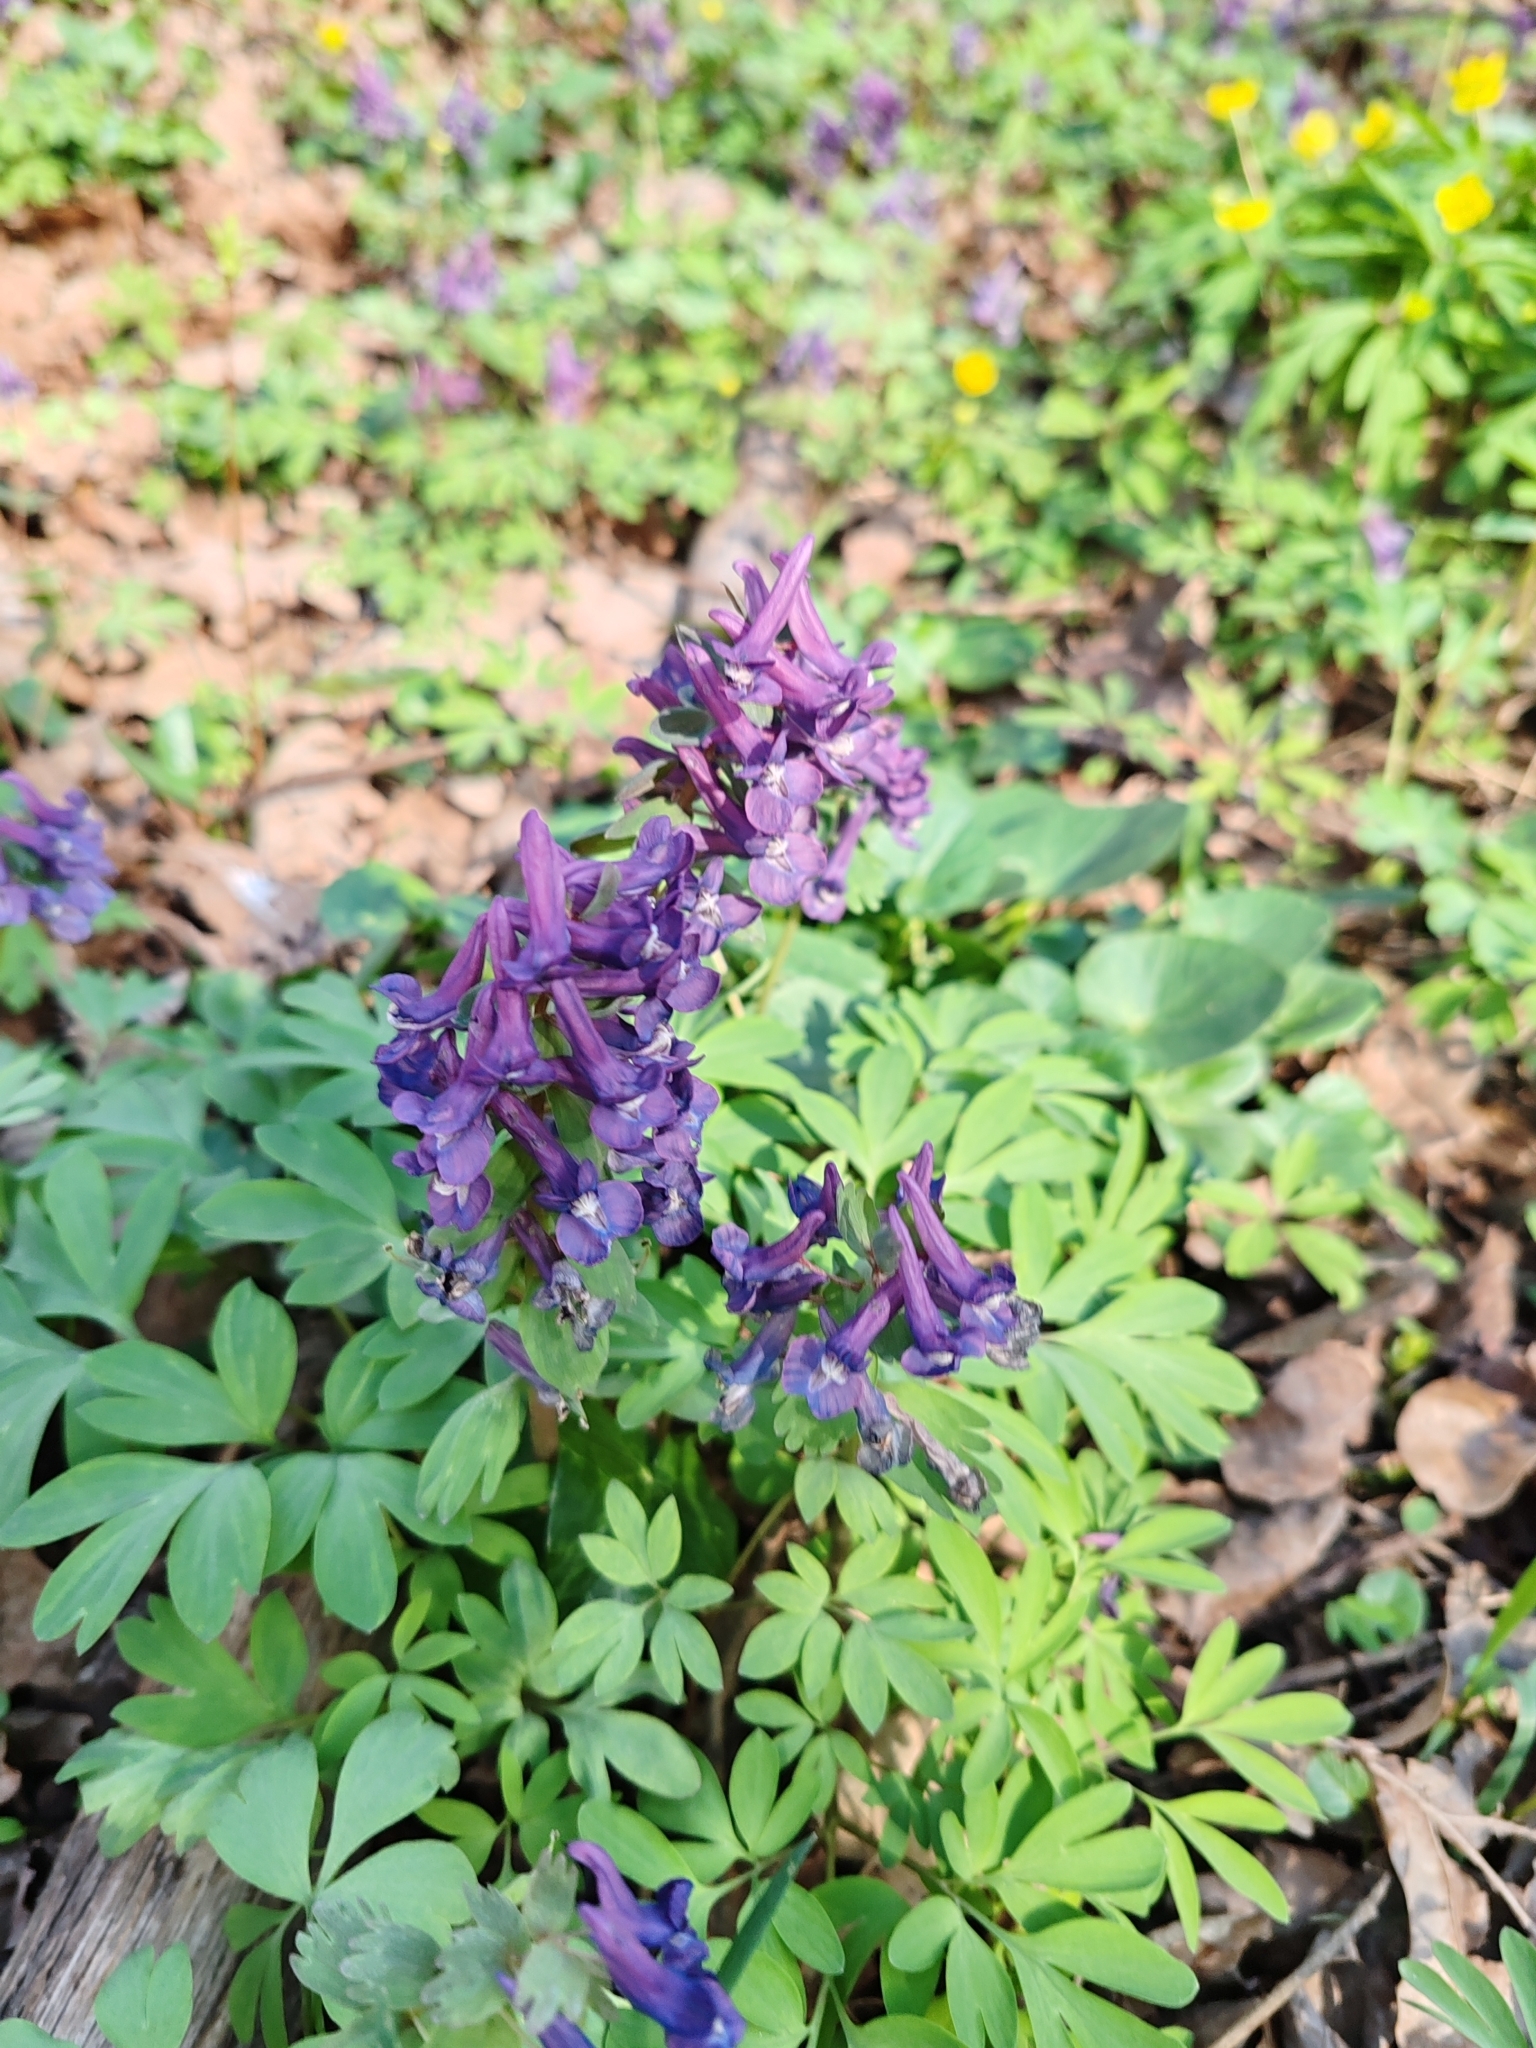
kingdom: Plantae
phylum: Tracheophyta
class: Magnoliopsida
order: Ranunculales
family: Papaveraceae
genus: Corydalis
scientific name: Corydalis solida
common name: Bird-in-a-bush
